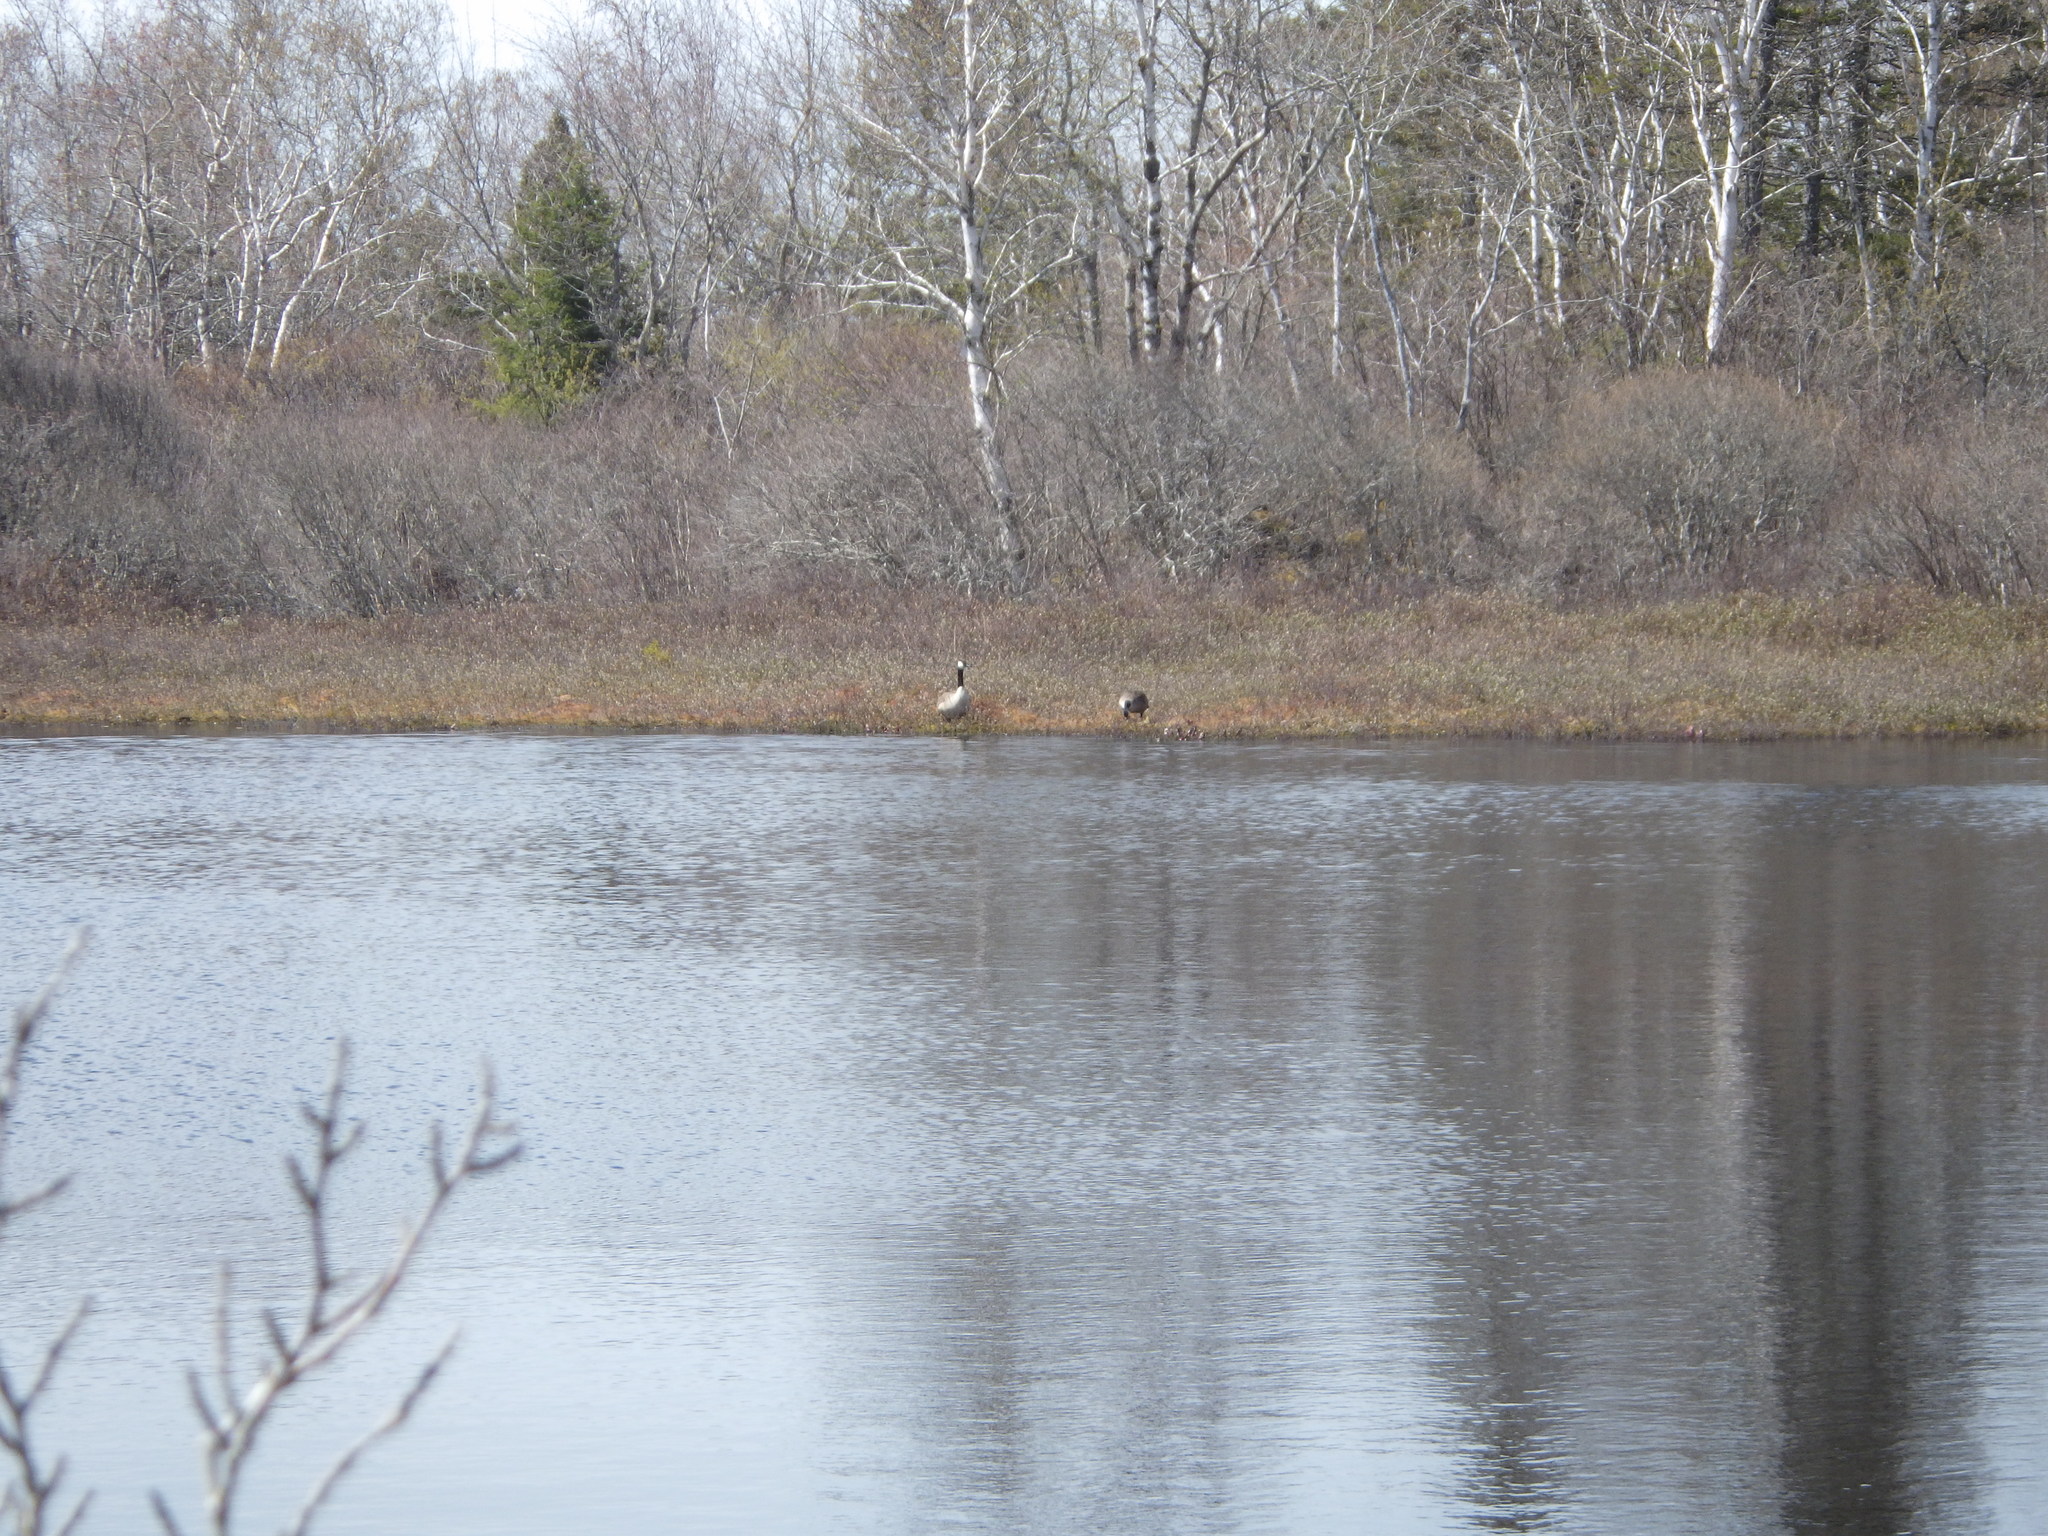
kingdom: Animalia
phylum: Chordata
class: Aves
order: Anseriformes
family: Anatidae
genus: Branta
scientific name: Branta canadensis
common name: Canada goose
